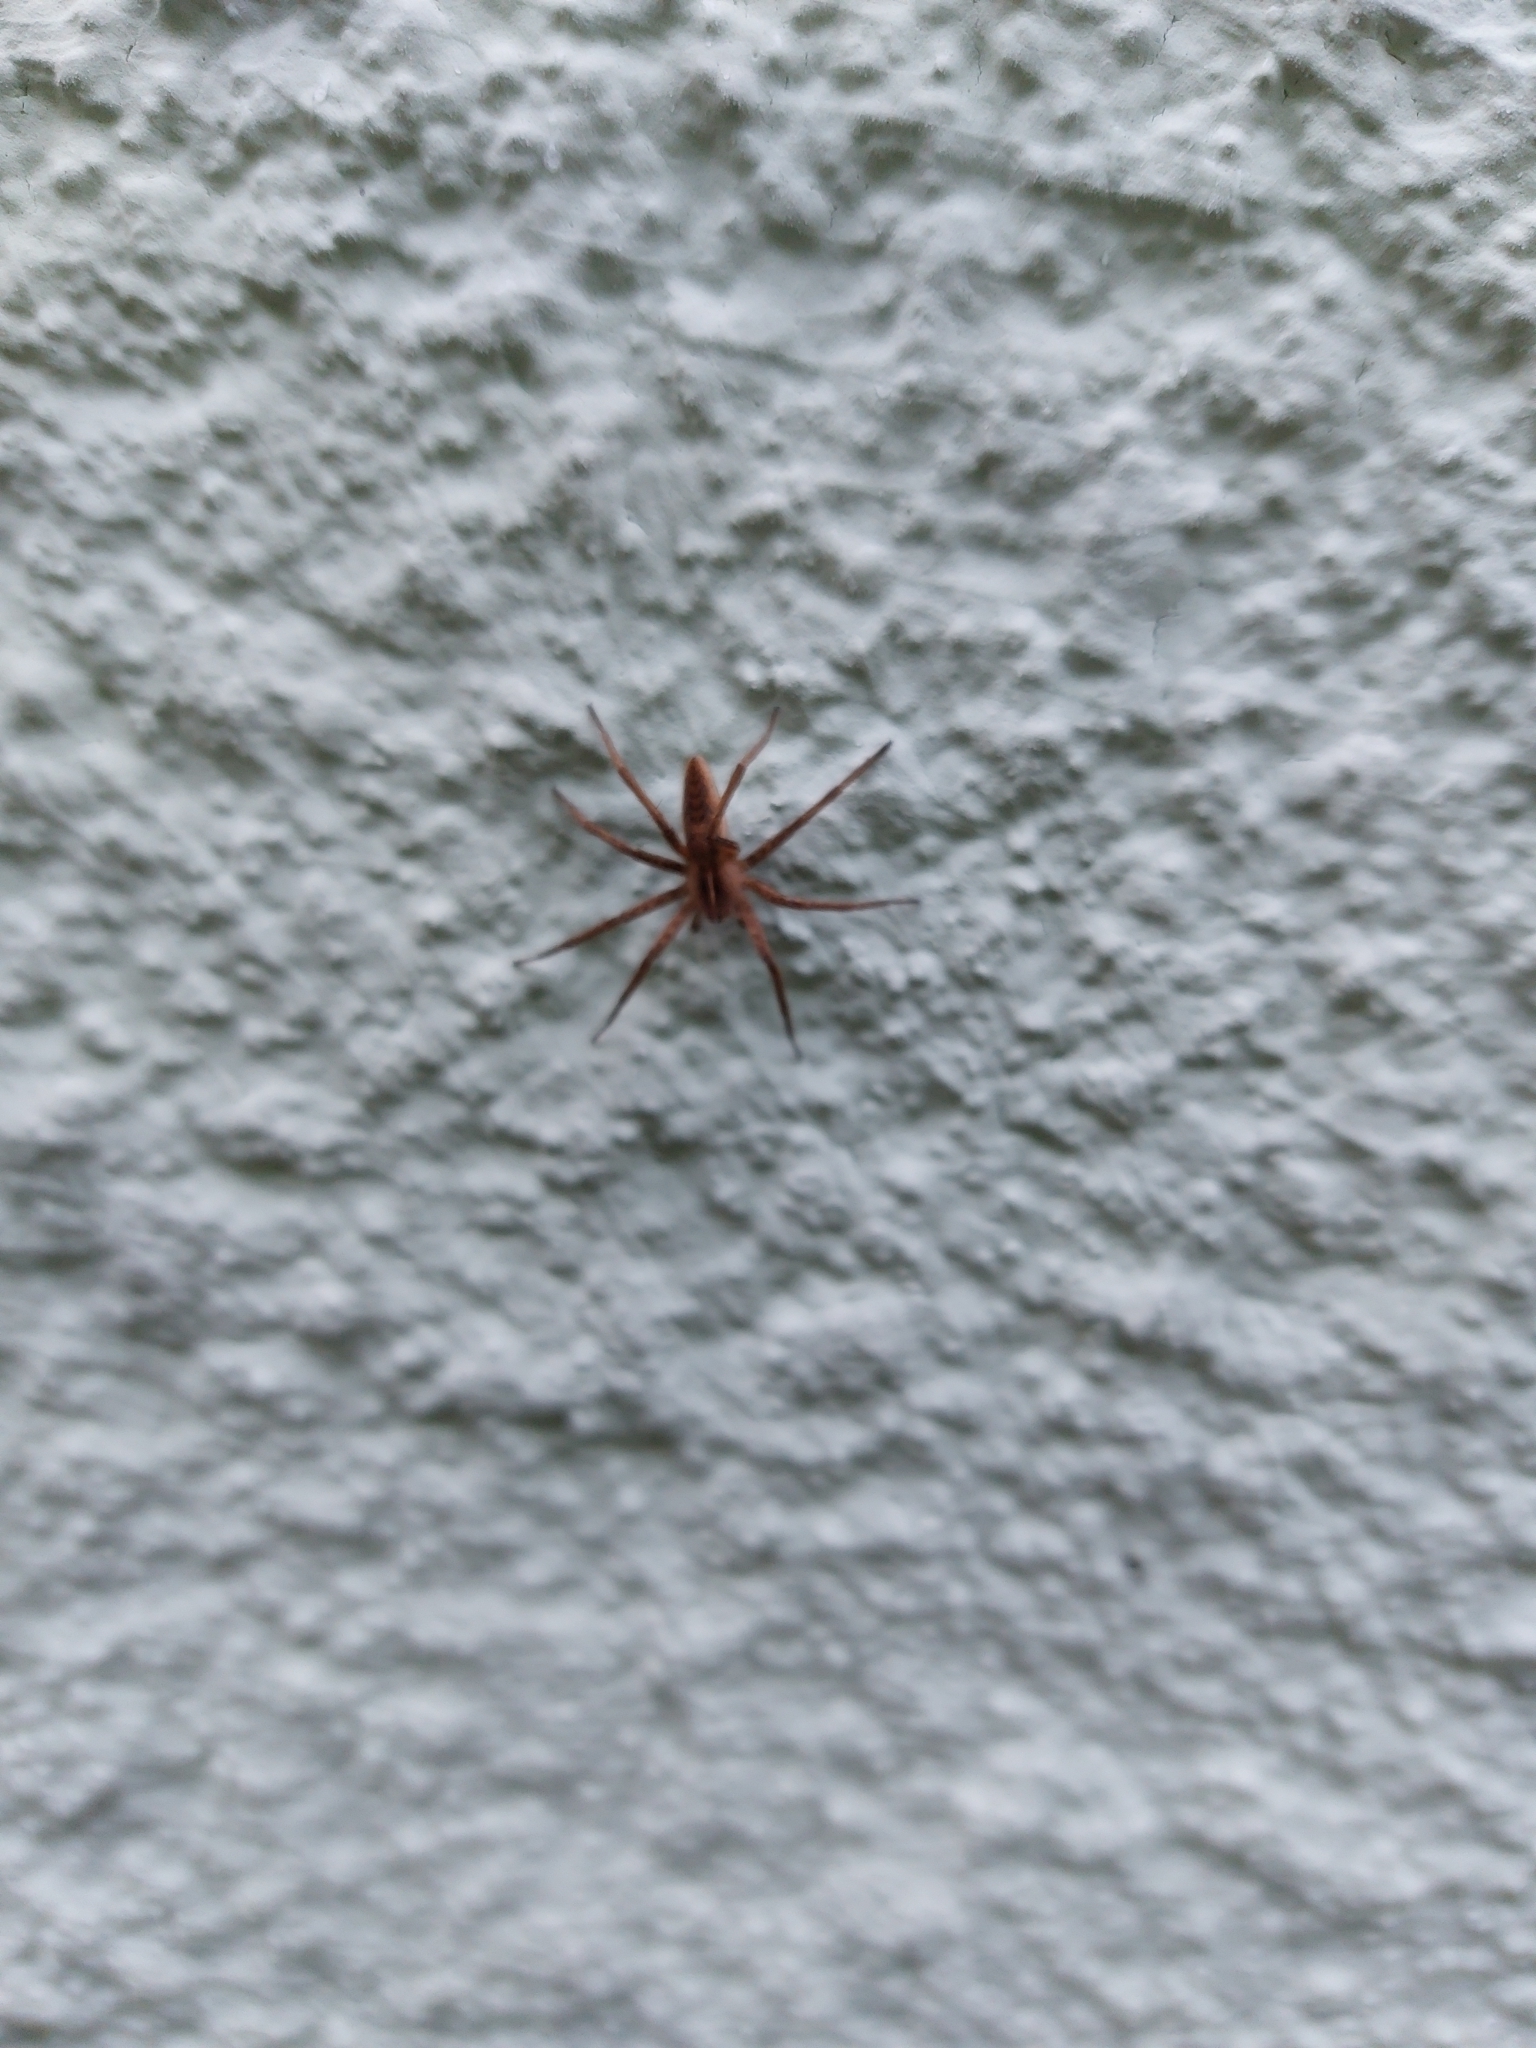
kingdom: Animalia
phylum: Arthropoda
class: Arachnida
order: Araneae
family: Pisauridae
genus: Pisaura
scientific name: Pisaura mirabilis
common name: Tent spider
